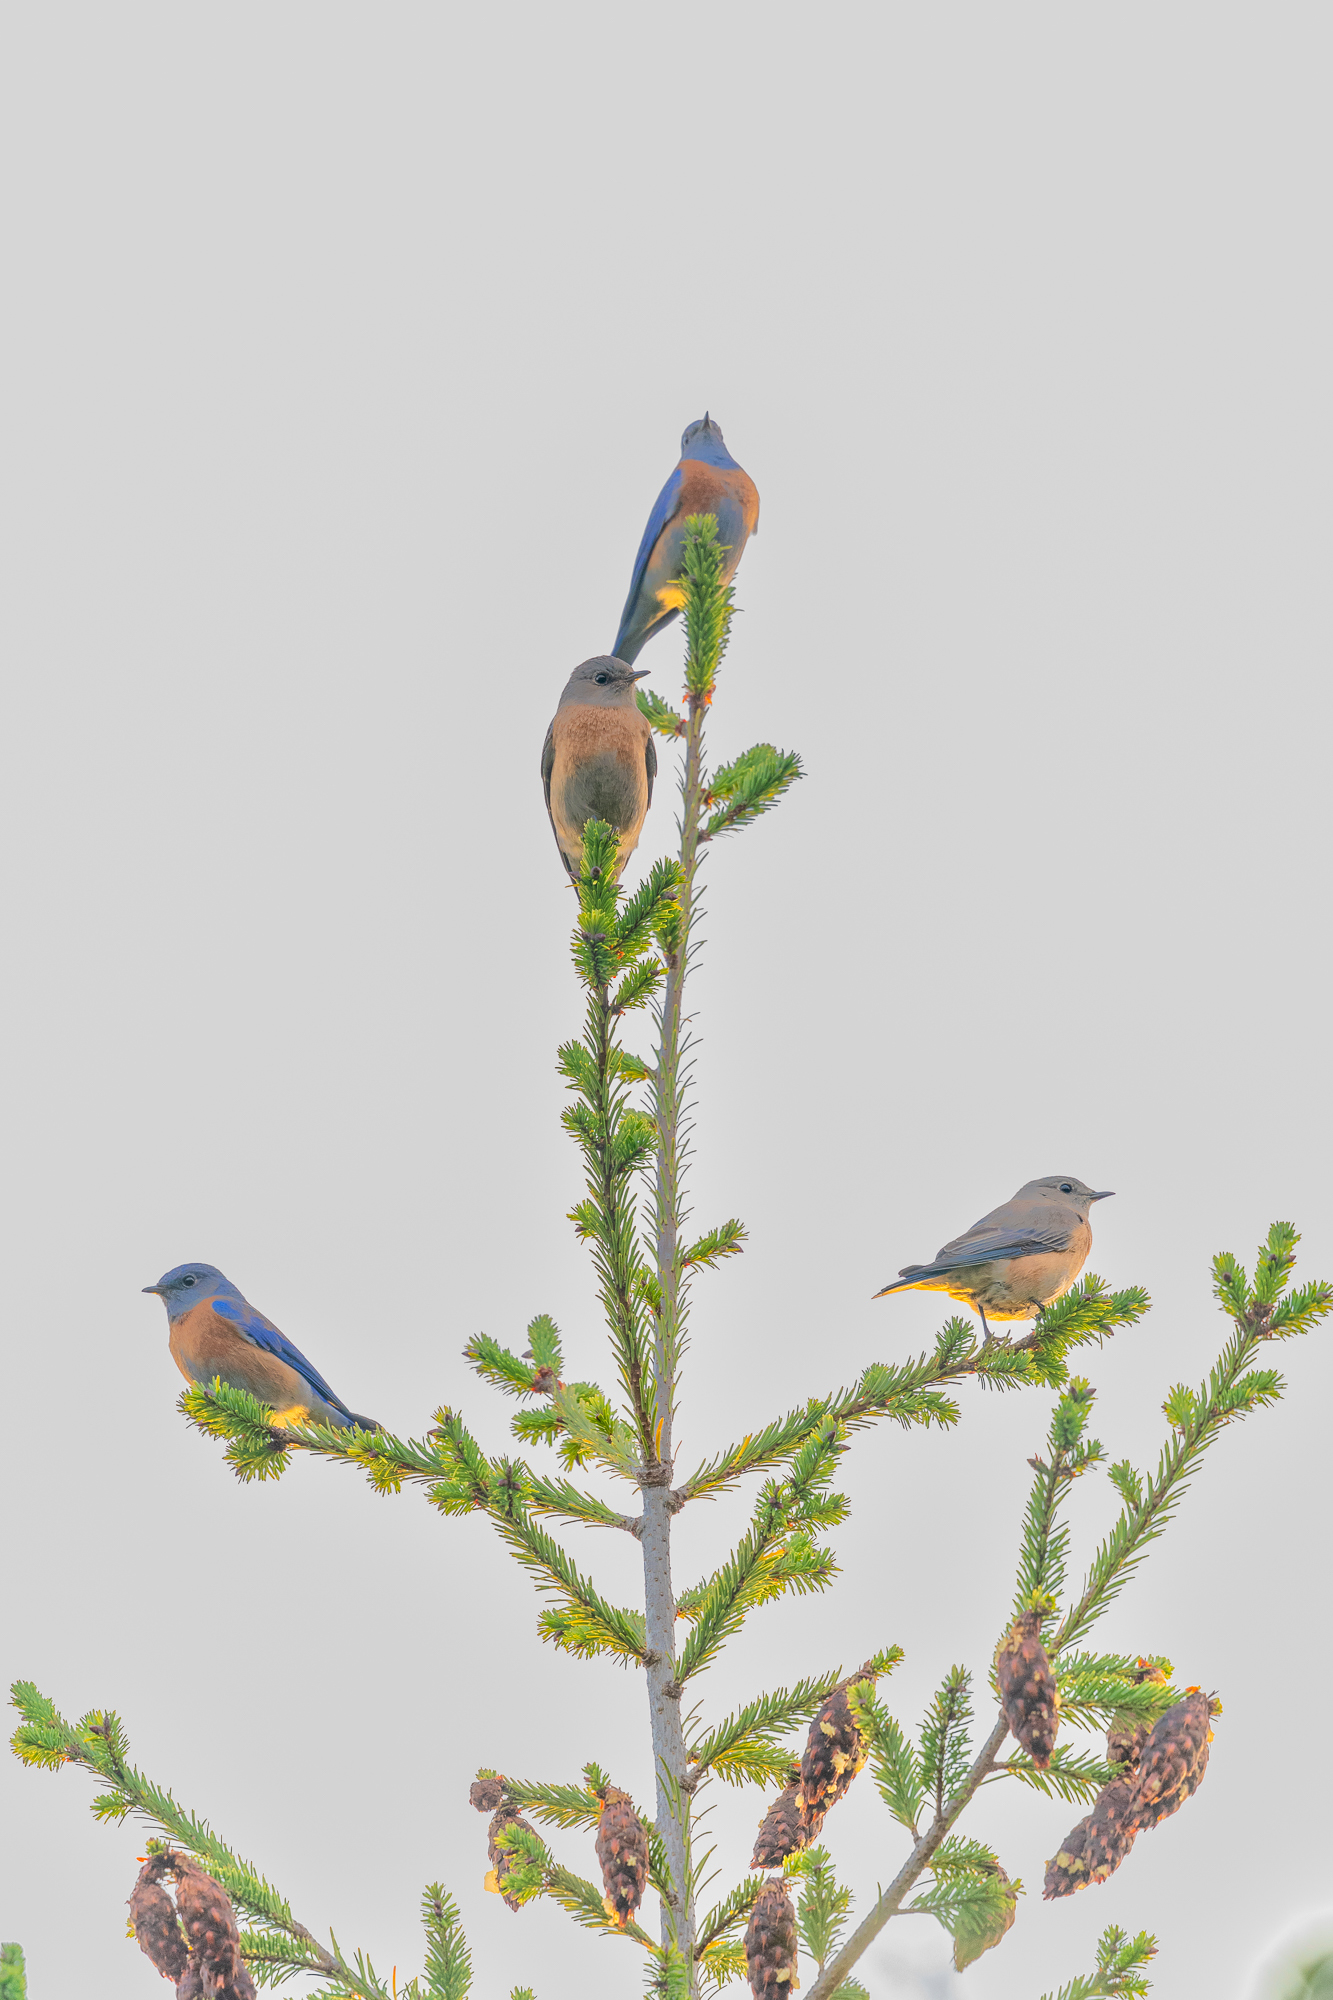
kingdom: Animalia
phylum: Chordata
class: Aves
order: Passeriformes
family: Turdidae
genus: Sialia
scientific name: Sialia mexicana
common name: Western bluebird
